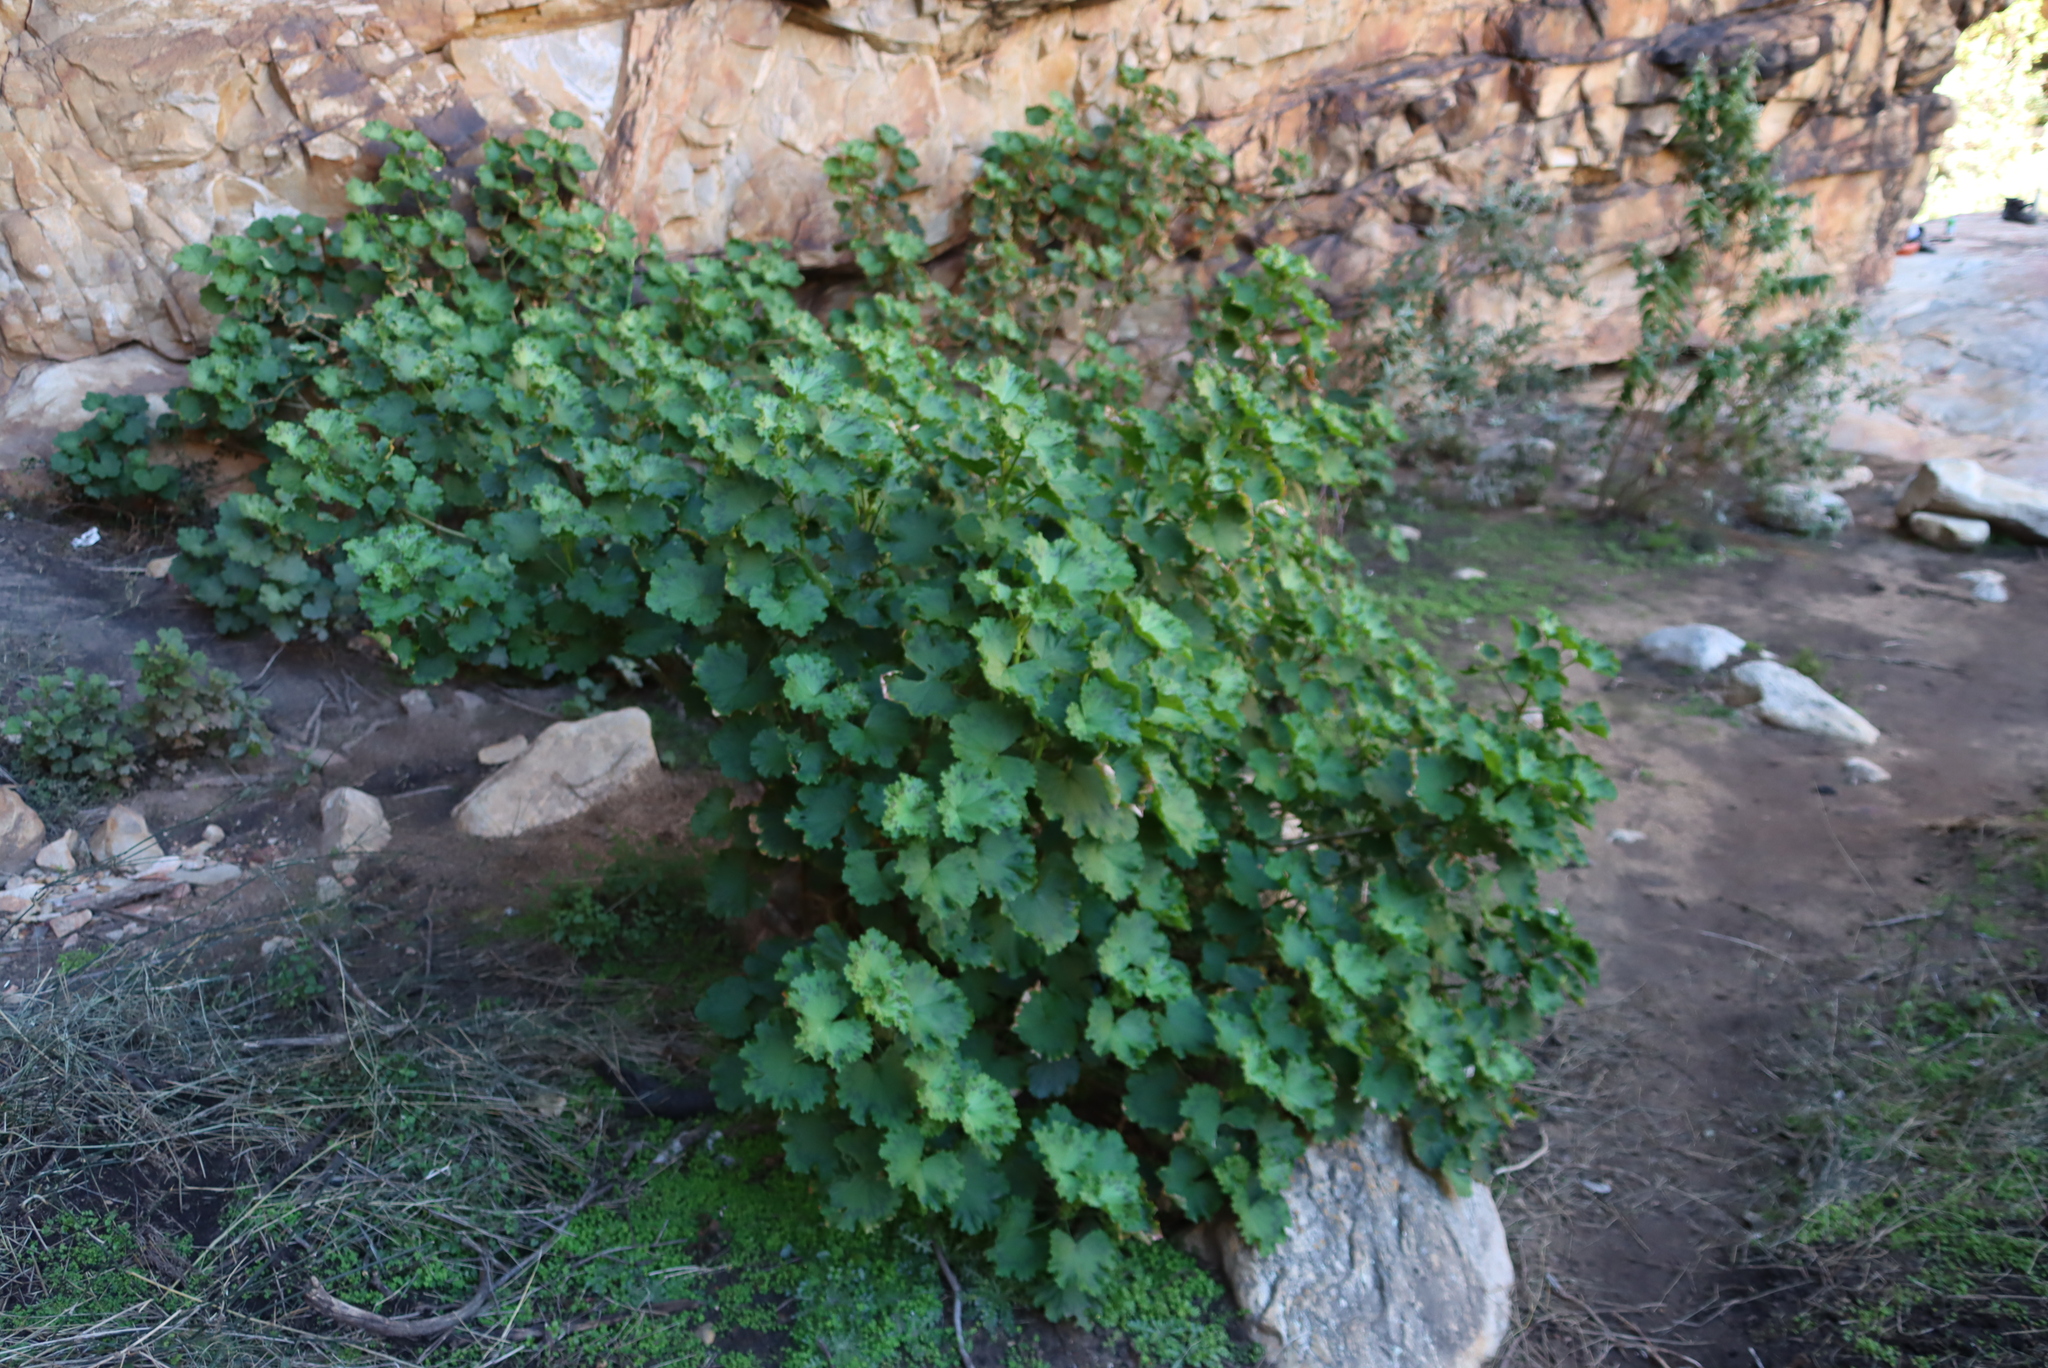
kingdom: Plantae
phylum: Tracheophyta
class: Magnoliopsida
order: Geraniales
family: Geraniaceae
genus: Pelargonium
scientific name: Pelargonium zonale
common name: Horseshoe geranium
